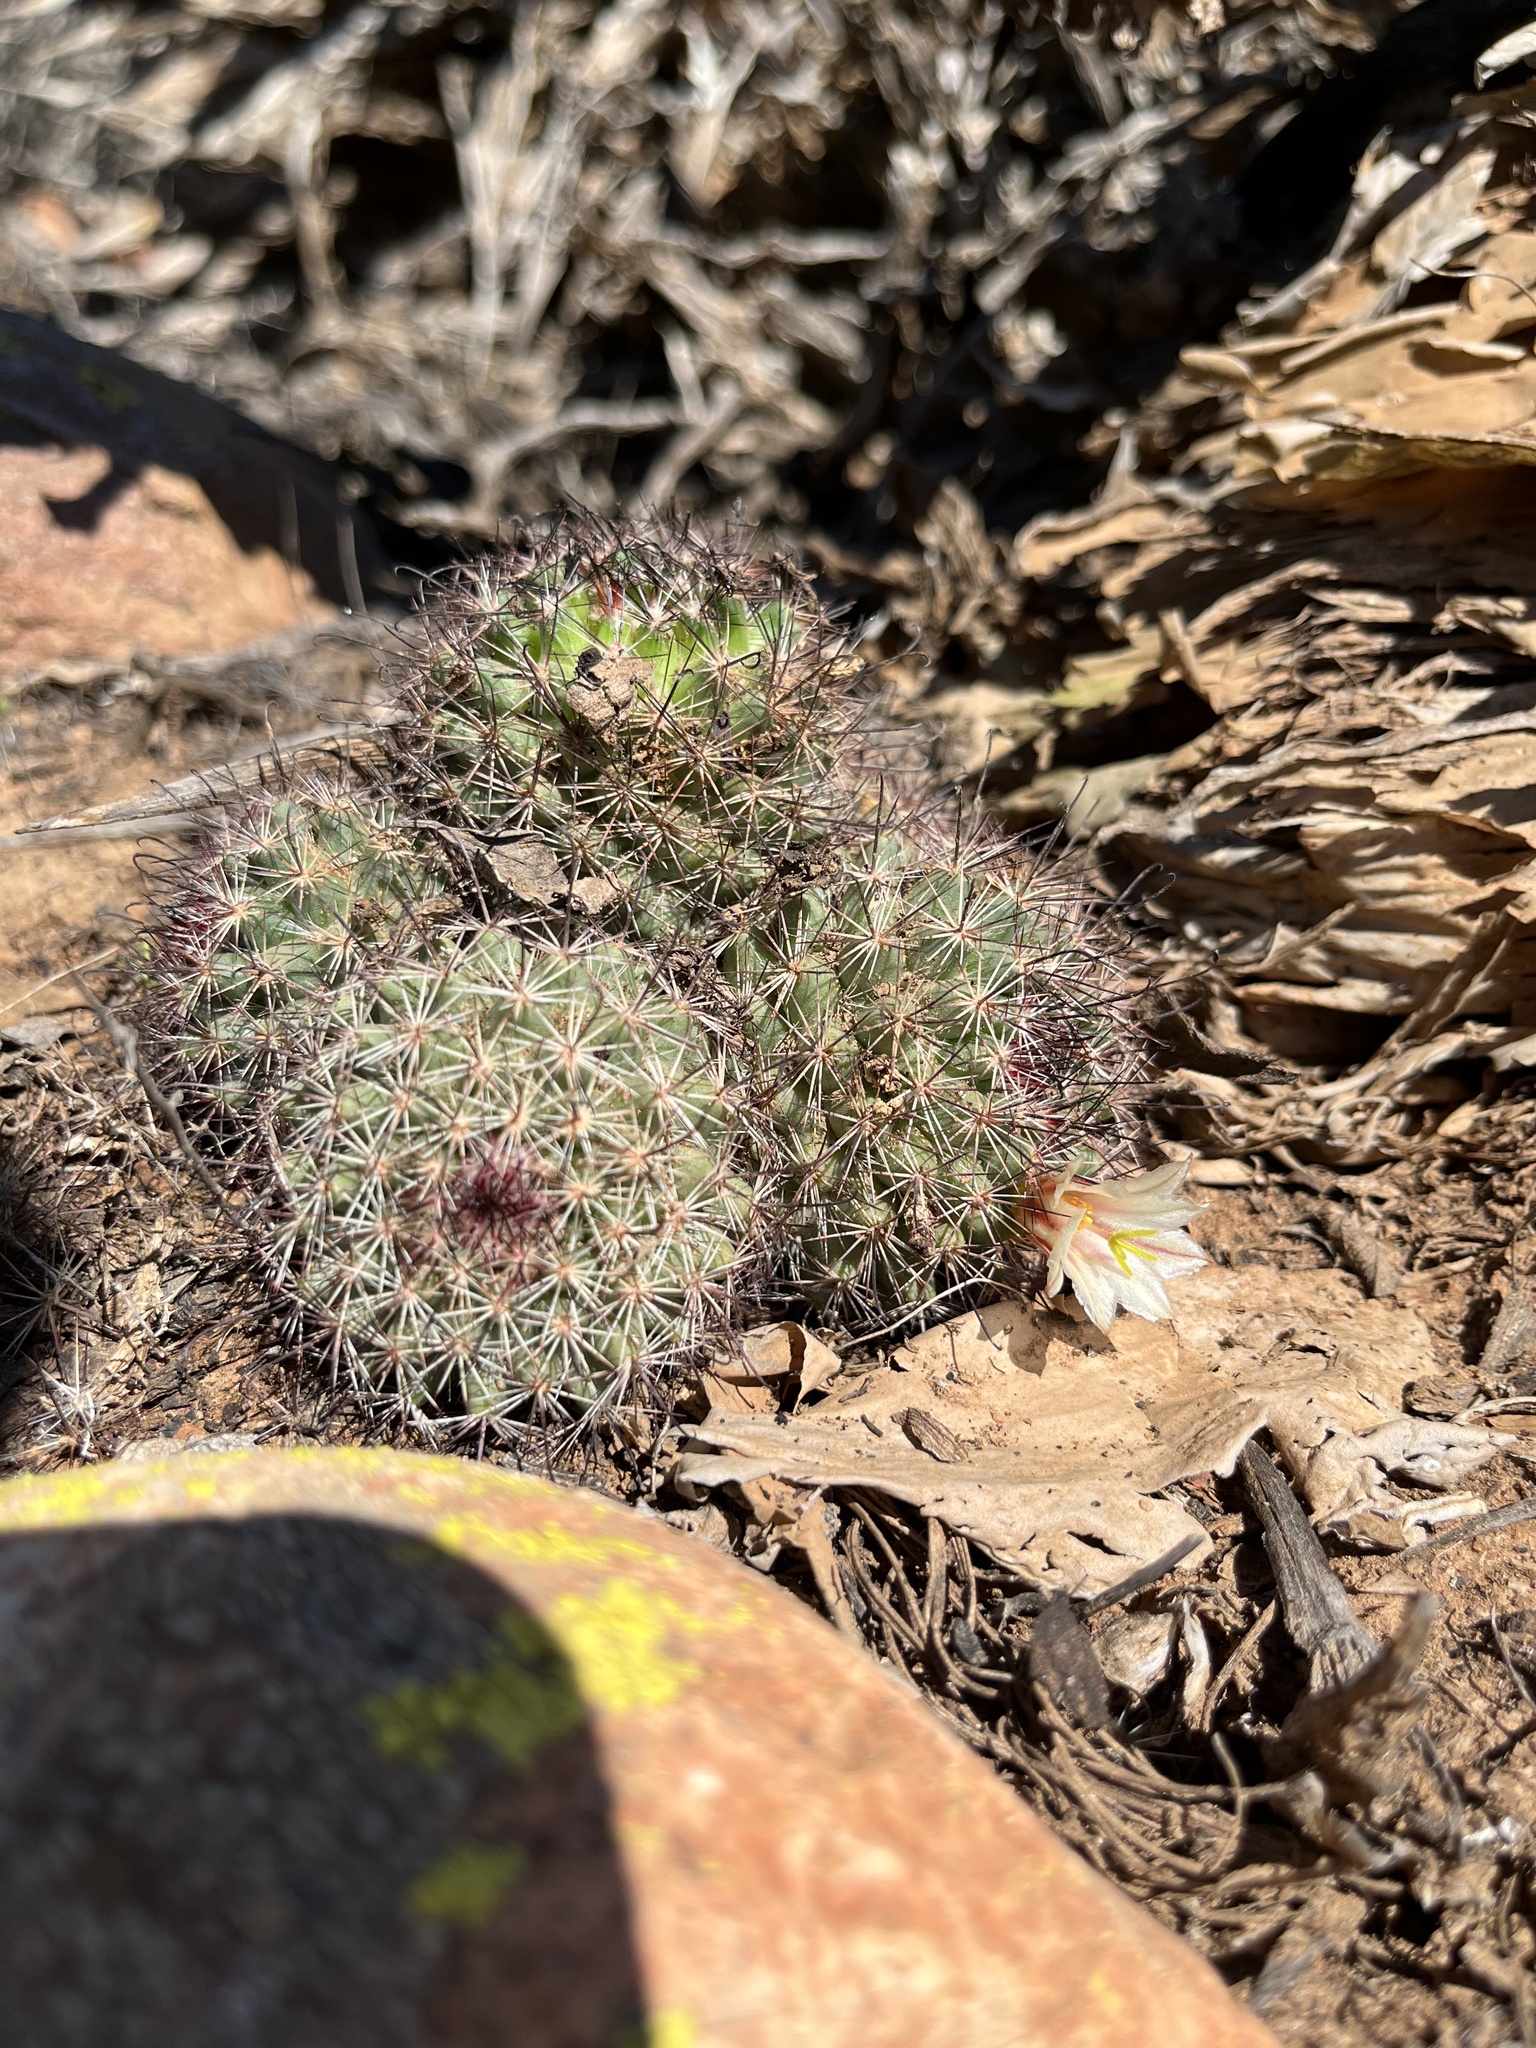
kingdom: Plantae
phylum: Tracheophyta
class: Magnoliopsida
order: Caryophyllales
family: Cactaceae
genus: Cochemiea
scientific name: Cochemiea dioica
